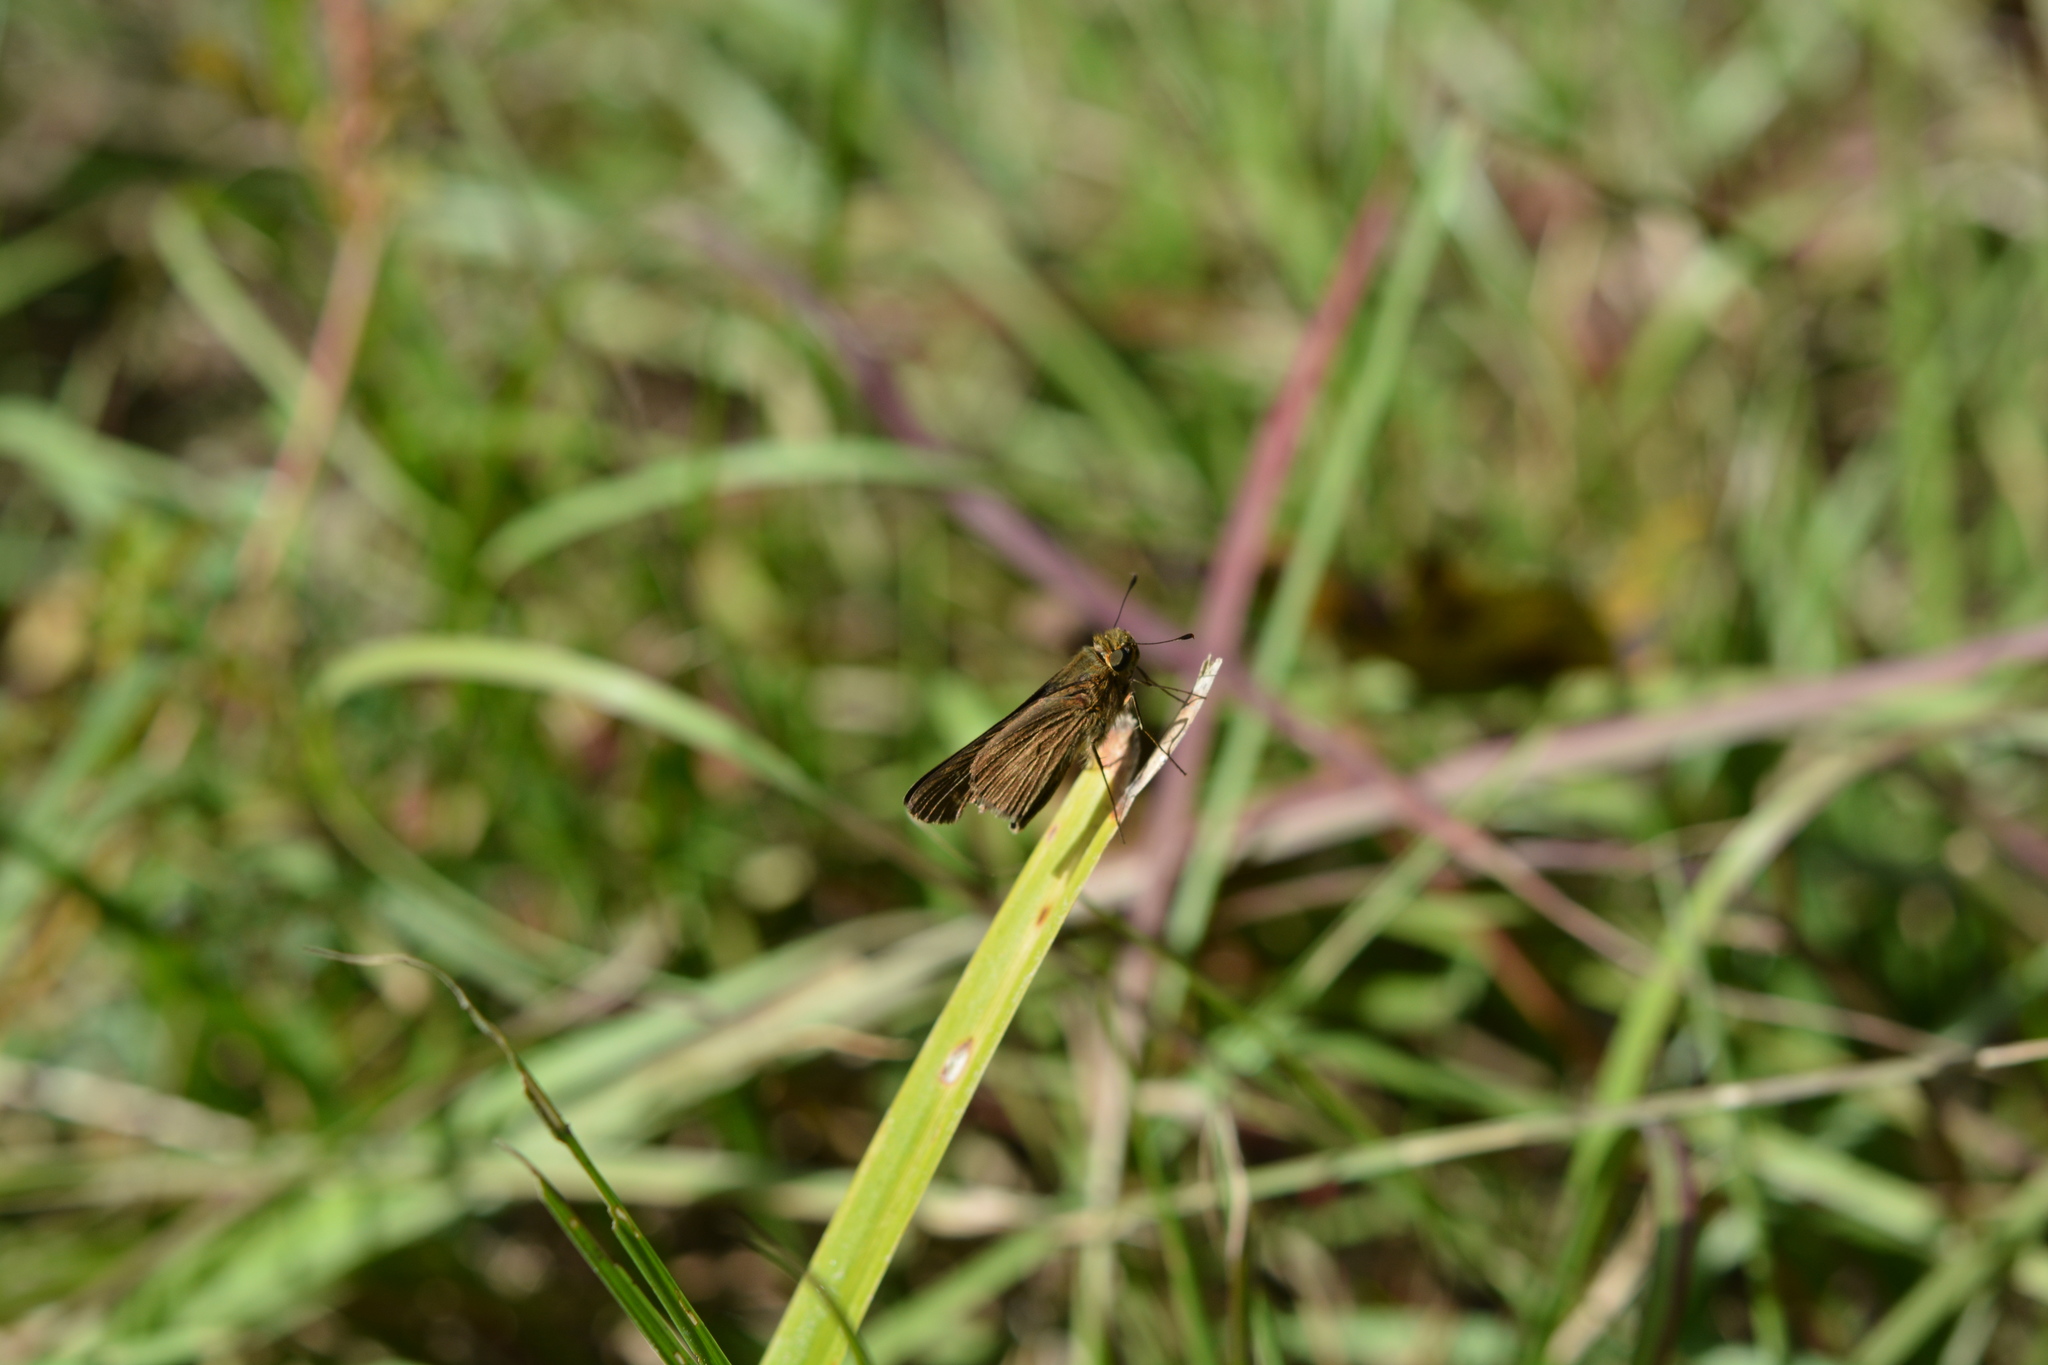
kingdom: Animalia
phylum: Arthropoda
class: Insecta
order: Lepidoptera
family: Hesperiidae
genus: Panoquina
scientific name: Panoquina ocola
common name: Ocola skipper
